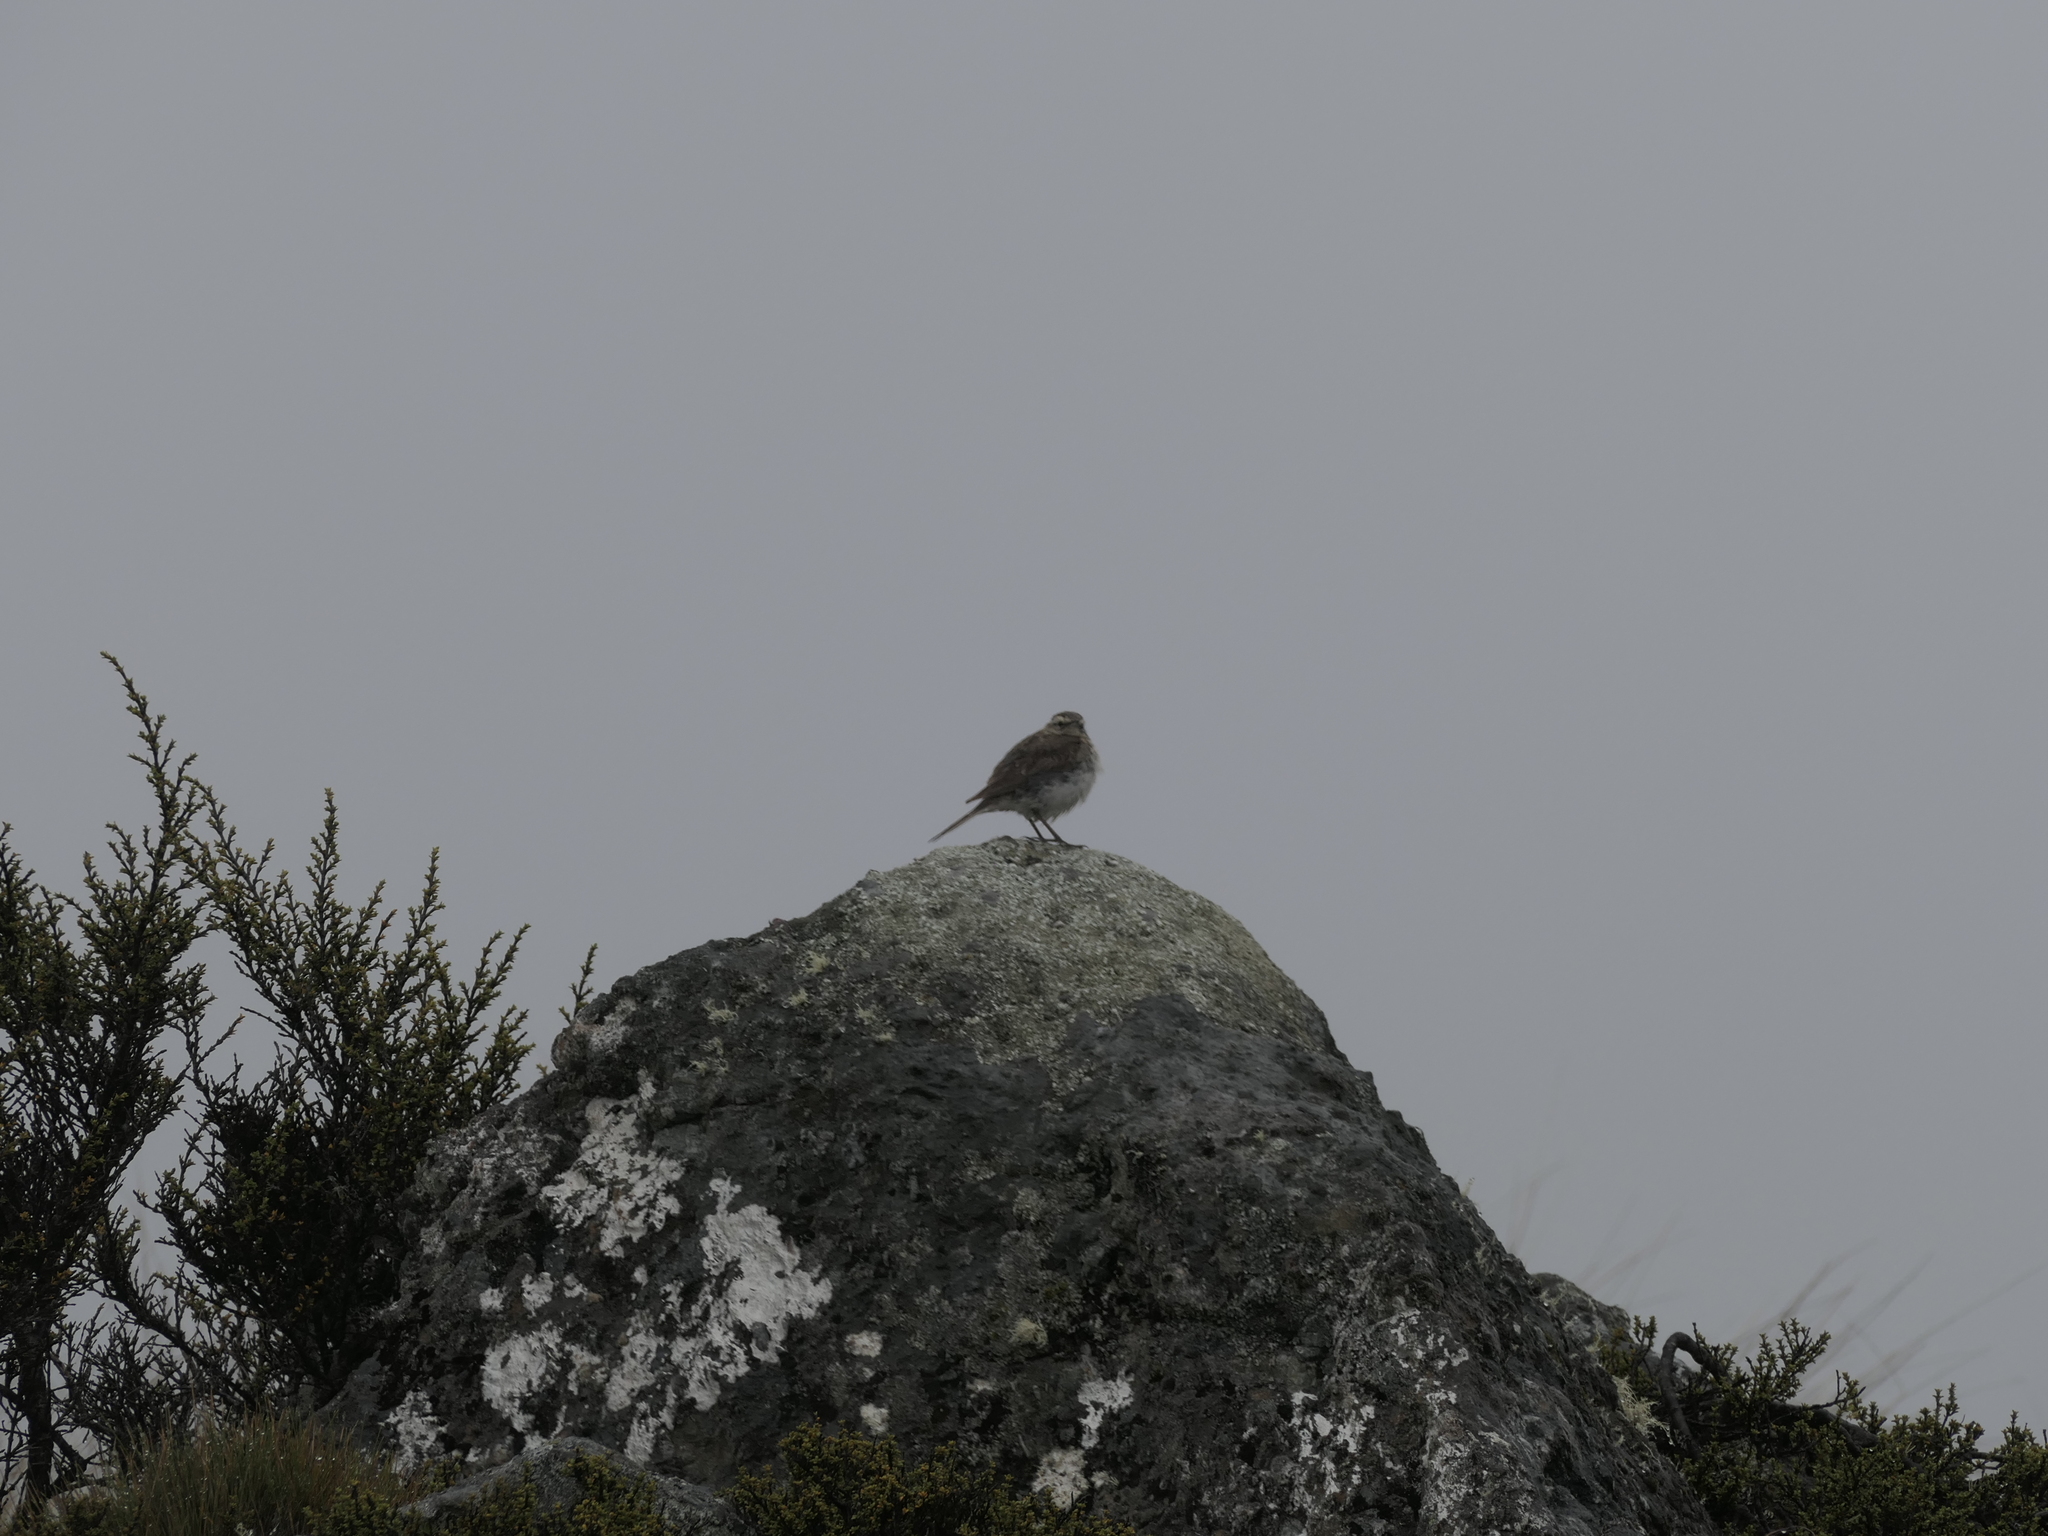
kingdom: Animalia
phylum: Chordata
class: Aves
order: Passeriformes
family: Motacillidae
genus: Anthus
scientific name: Anthus novaeseelandiae
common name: New zealand pipit
